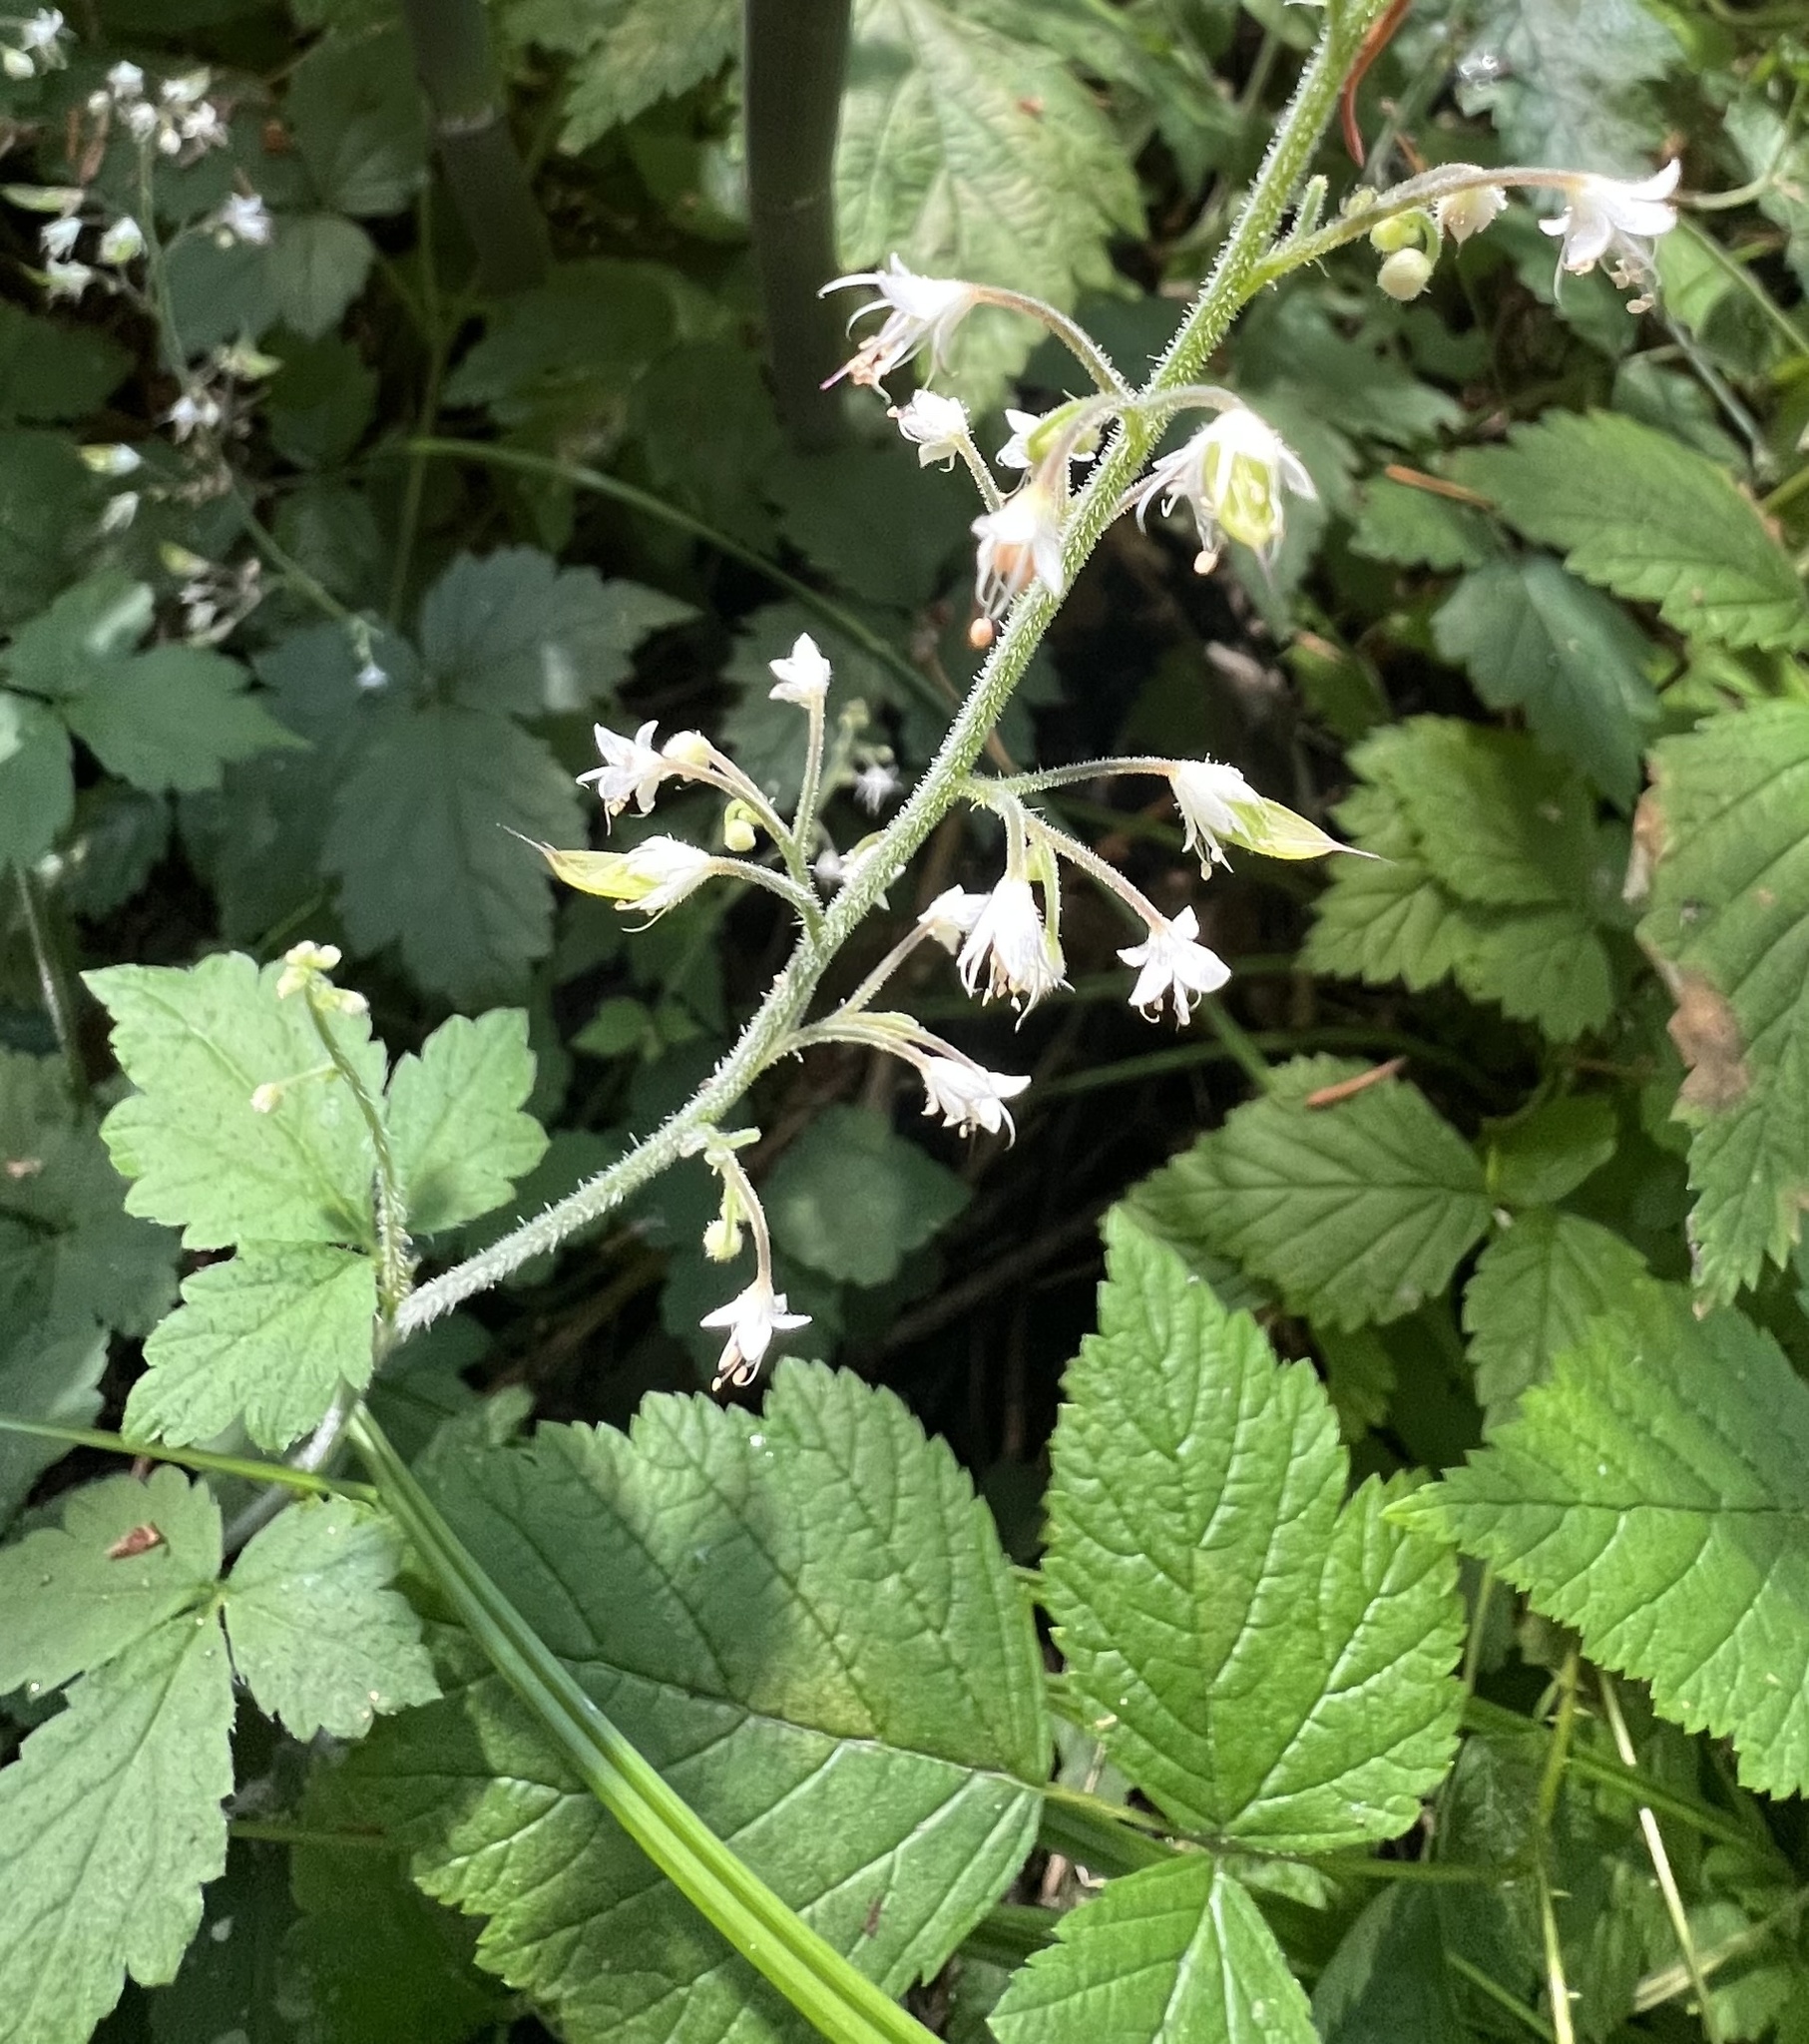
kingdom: Plantae
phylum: Tracheophyta
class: Magnoliopsida
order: Saxifragales
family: Saxifragaceae
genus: Tiarella
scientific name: Tiarella trifoliata
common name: Sugar-scoop
